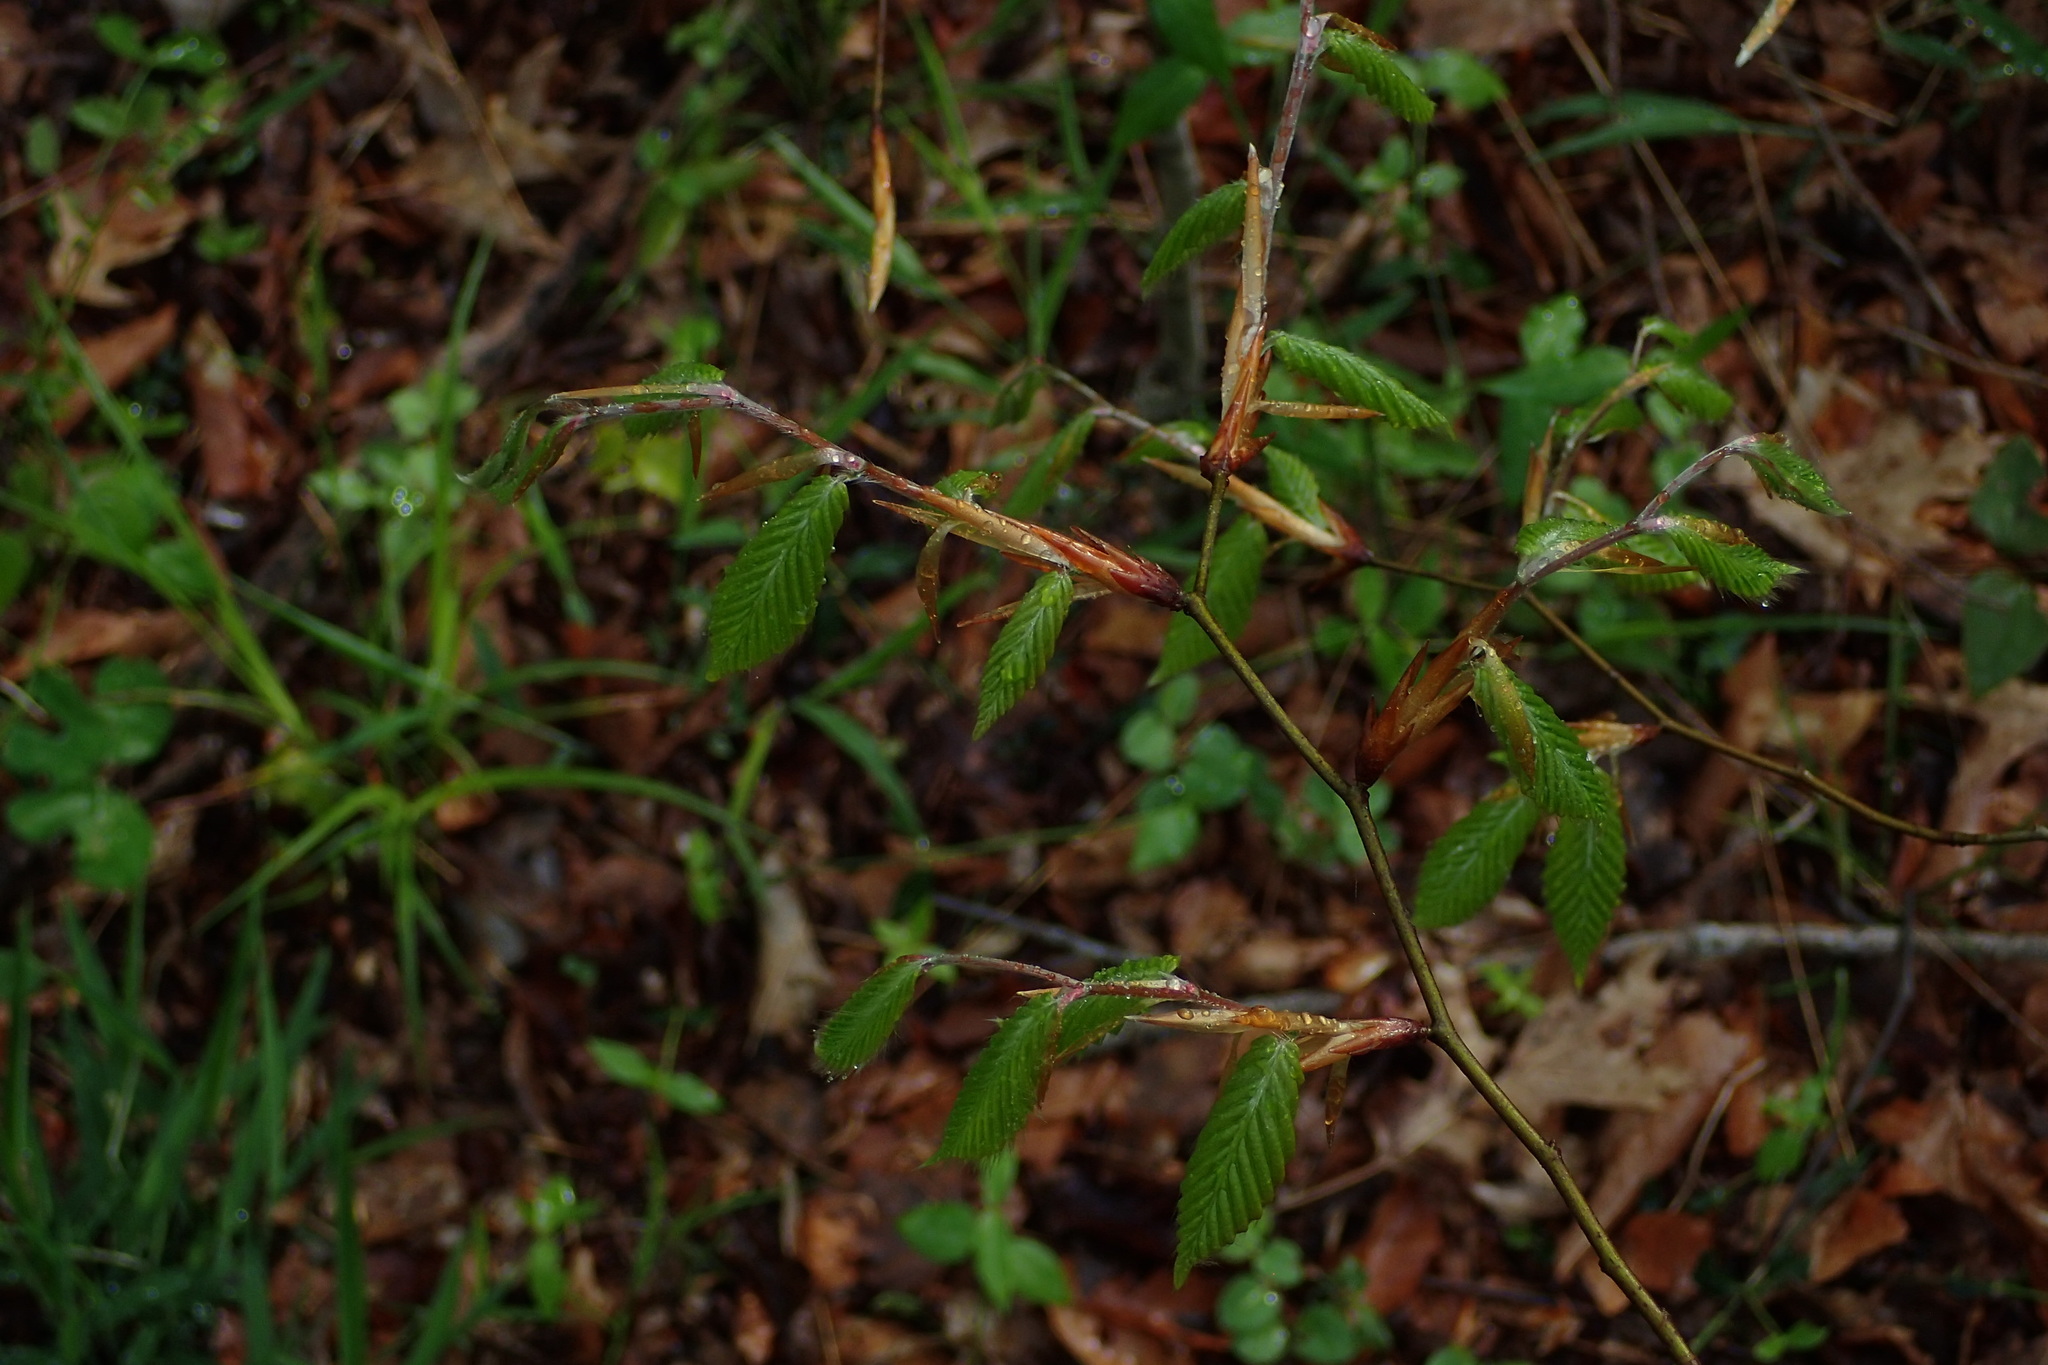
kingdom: Plantae
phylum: Tracheophyta
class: Magnoliopsida
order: Fagales
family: Fagaceae
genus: Fagus
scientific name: Fagus grandifolia
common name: American beech
